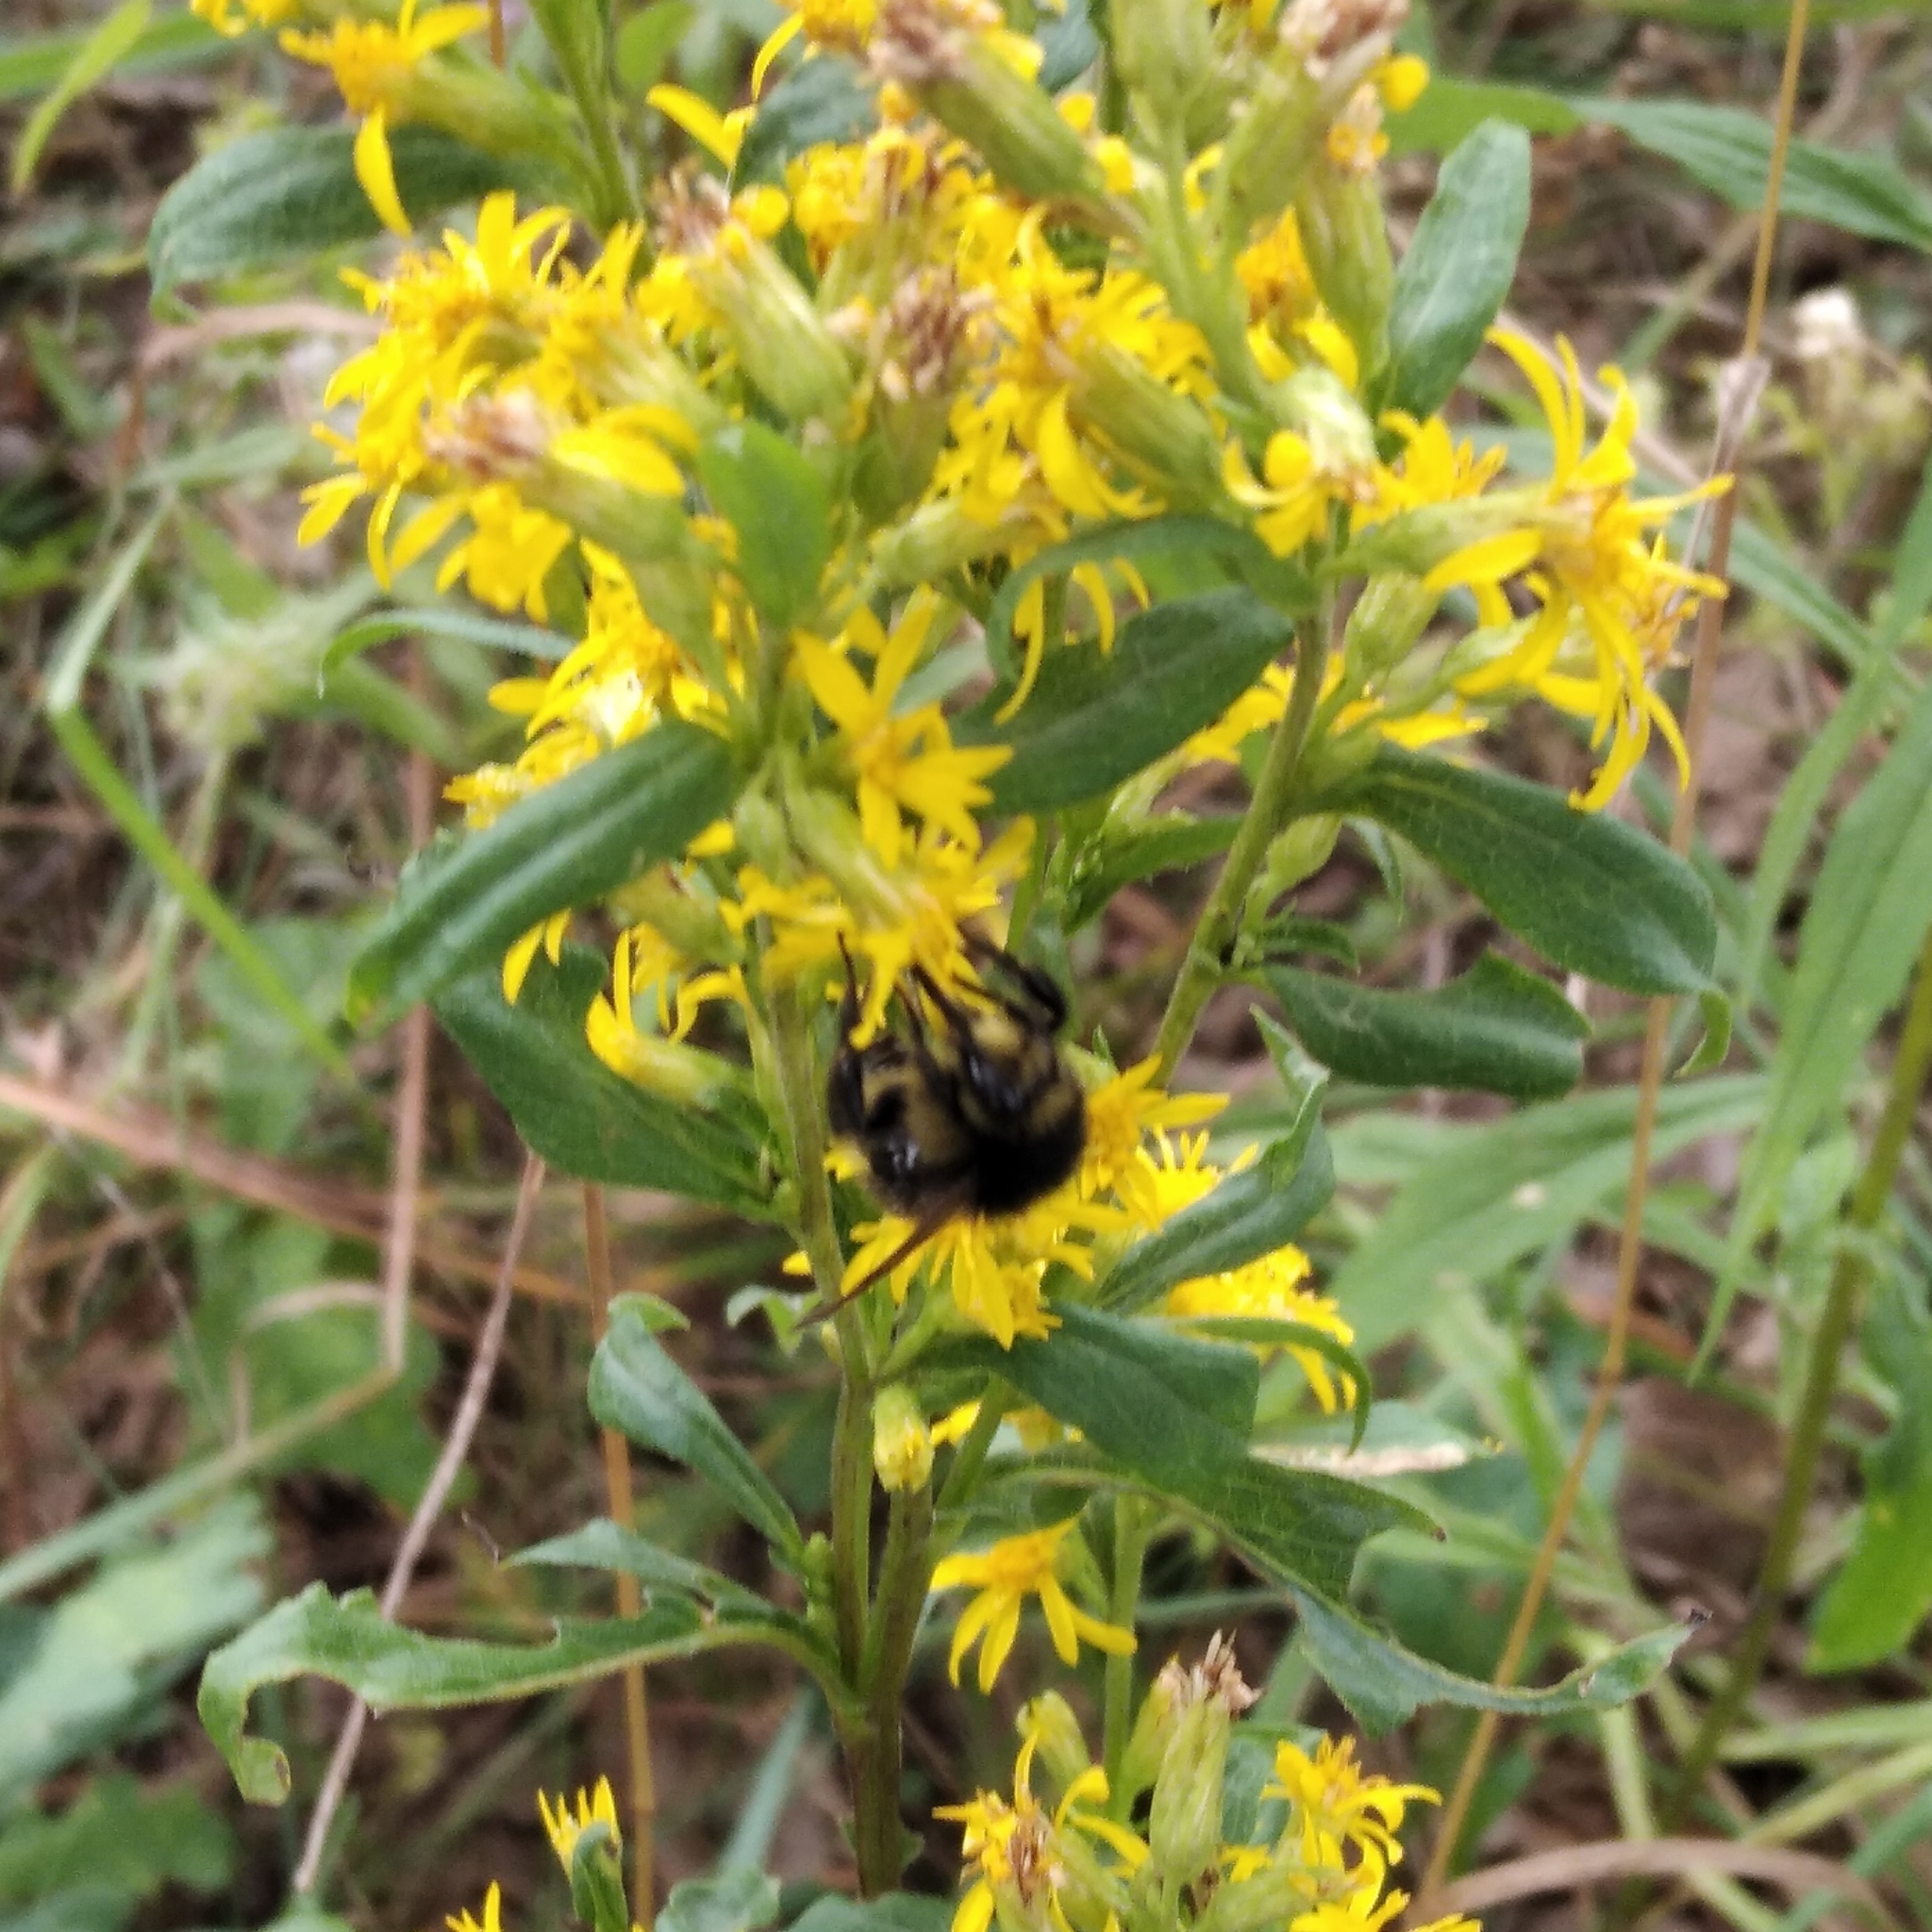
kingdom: Plantae
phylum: Tracheophyta
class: Magnoliopsida
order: Asterales
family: Asteraceae
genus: Solidago
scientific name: Solidago virgaurea
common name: Goldenrod
